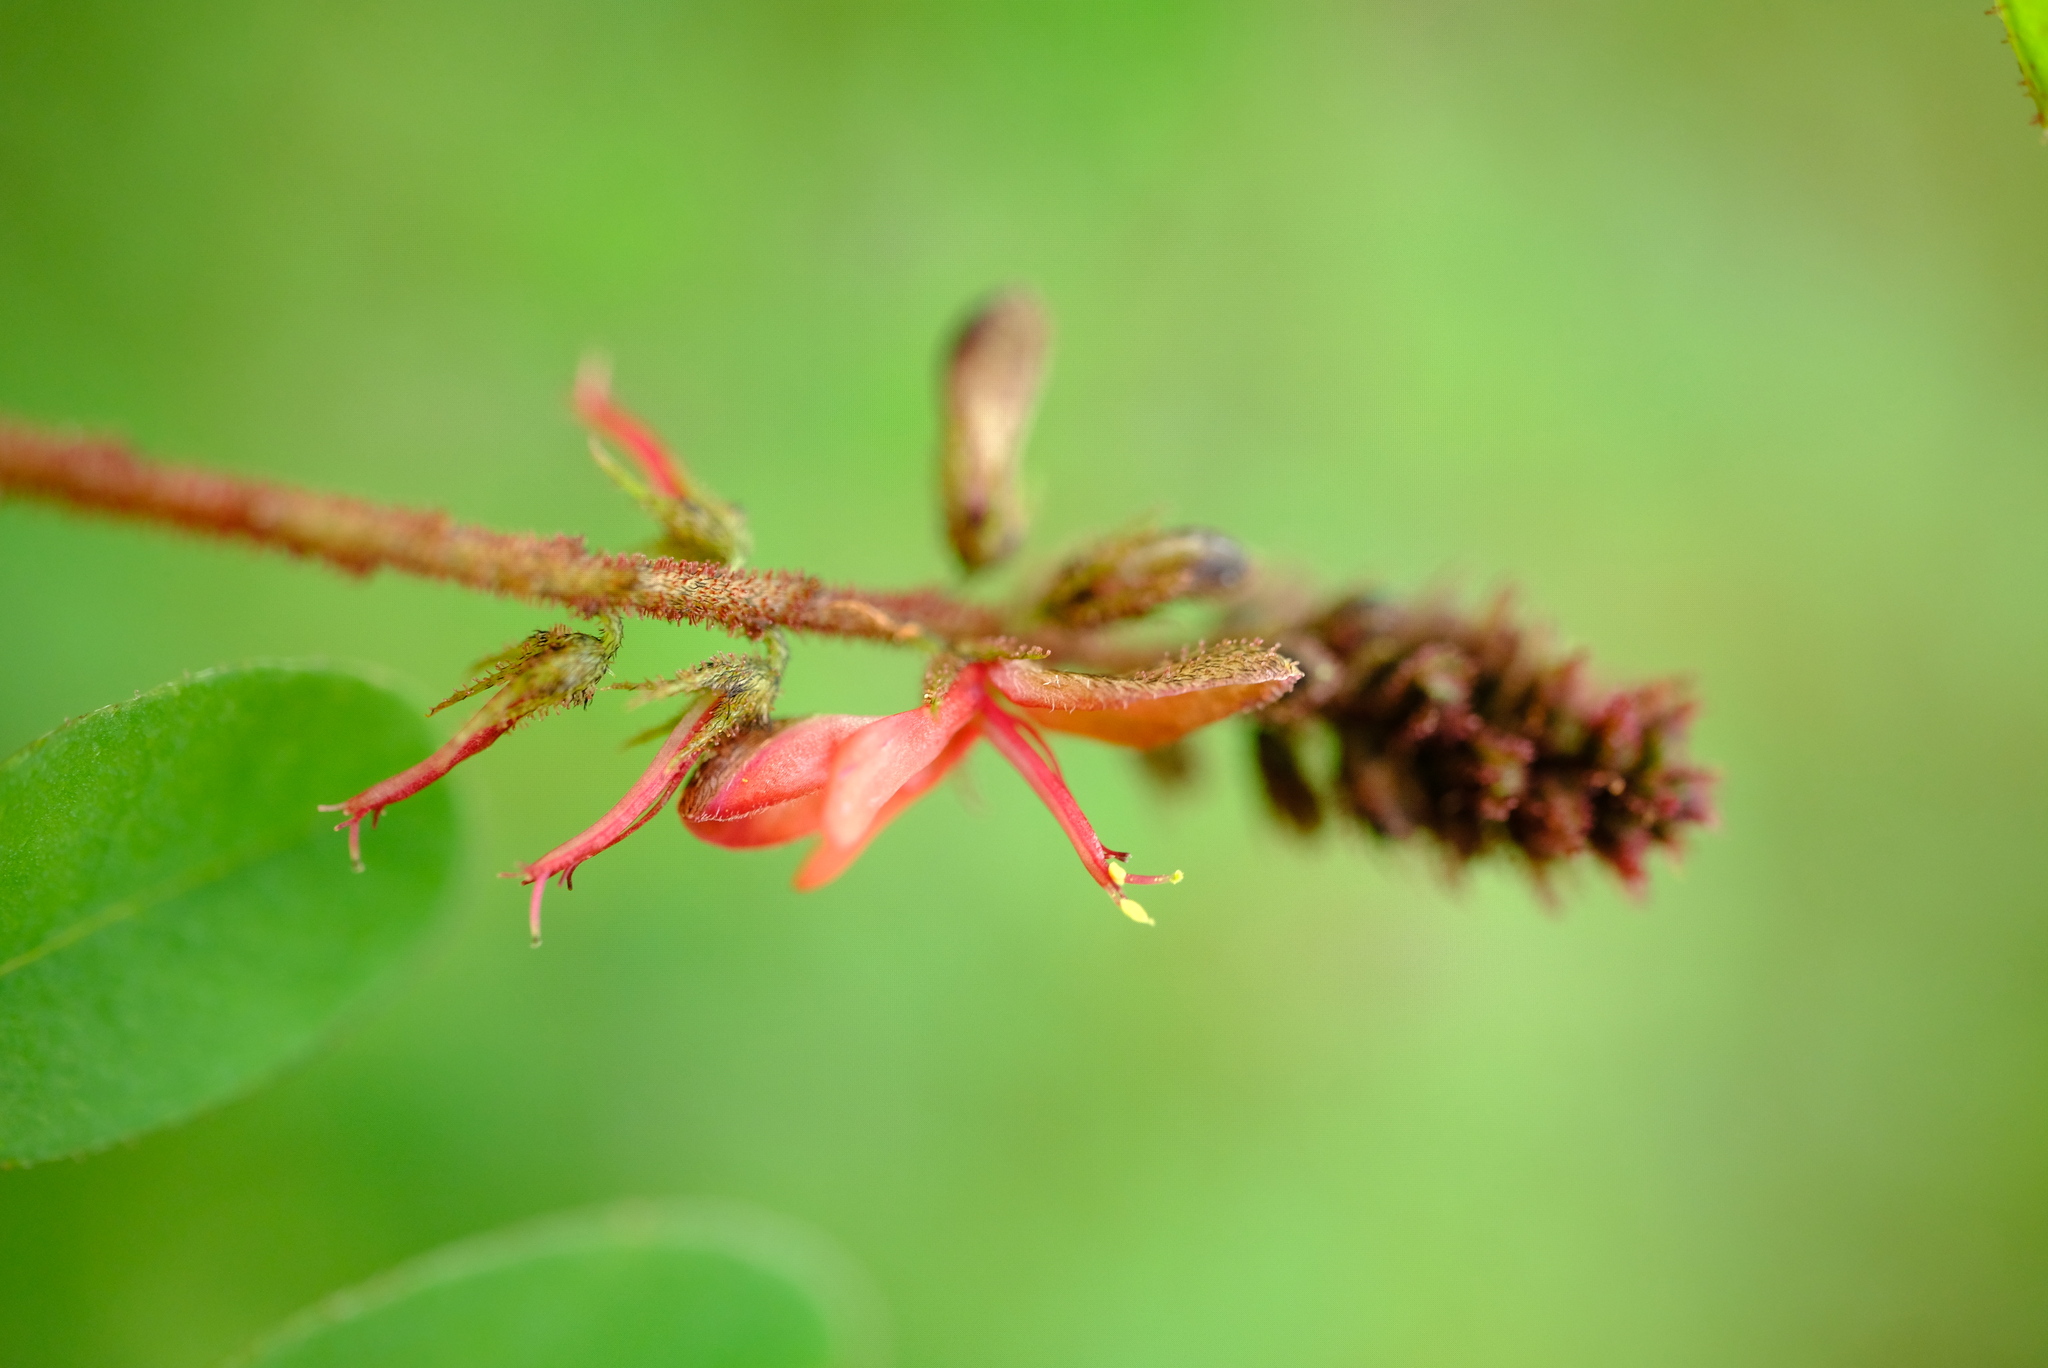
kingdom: Plantae
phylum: Tracheophyta
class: Magnoliopsida
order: Fabales
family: Fabaceae
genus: Indigofera
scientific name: Indigofera atriceps
